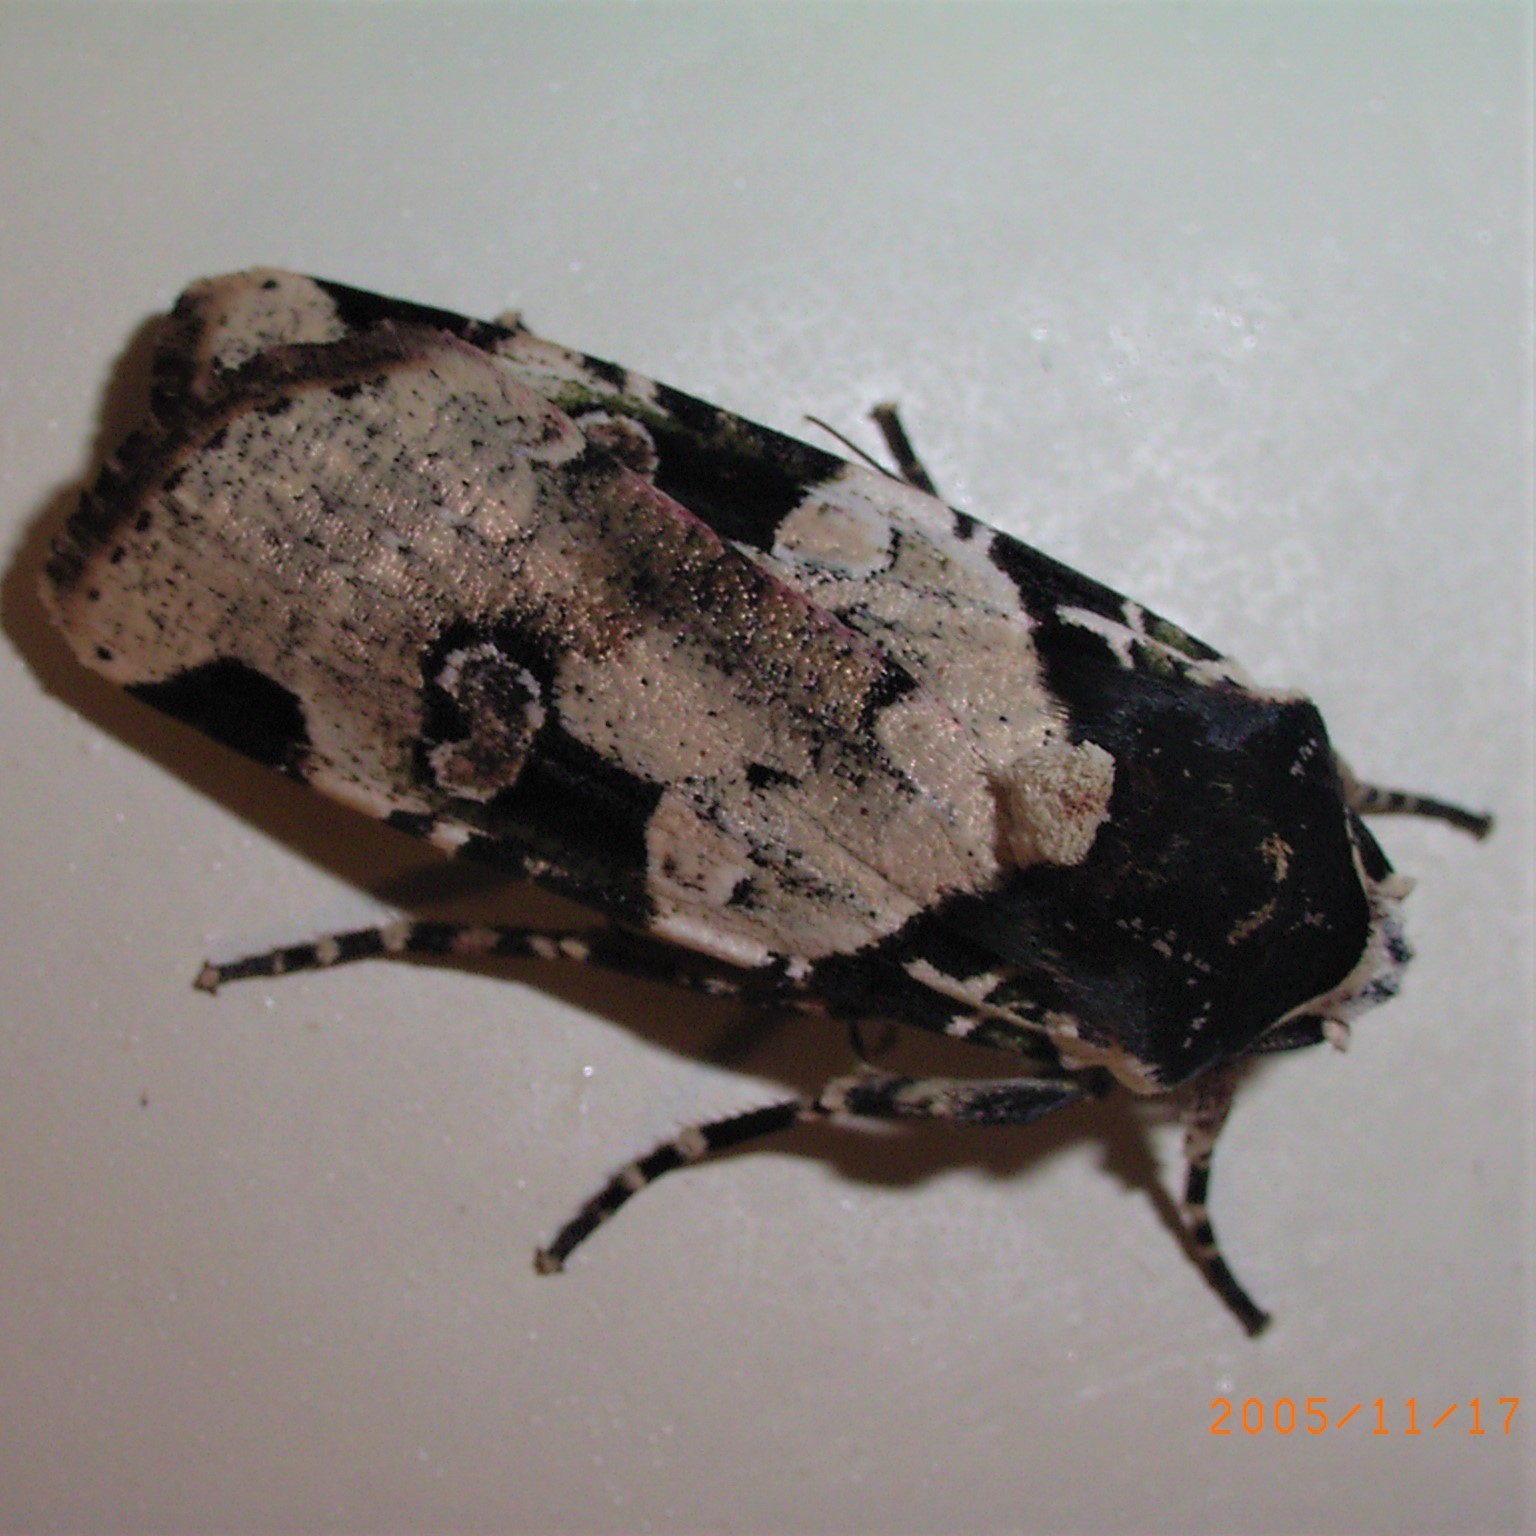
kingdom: Animalia
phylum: Arthropoda
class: Insecta
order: Lepidoptera
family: Noctuidae
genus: Mentaxya
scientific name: Mentaxya albifrons
